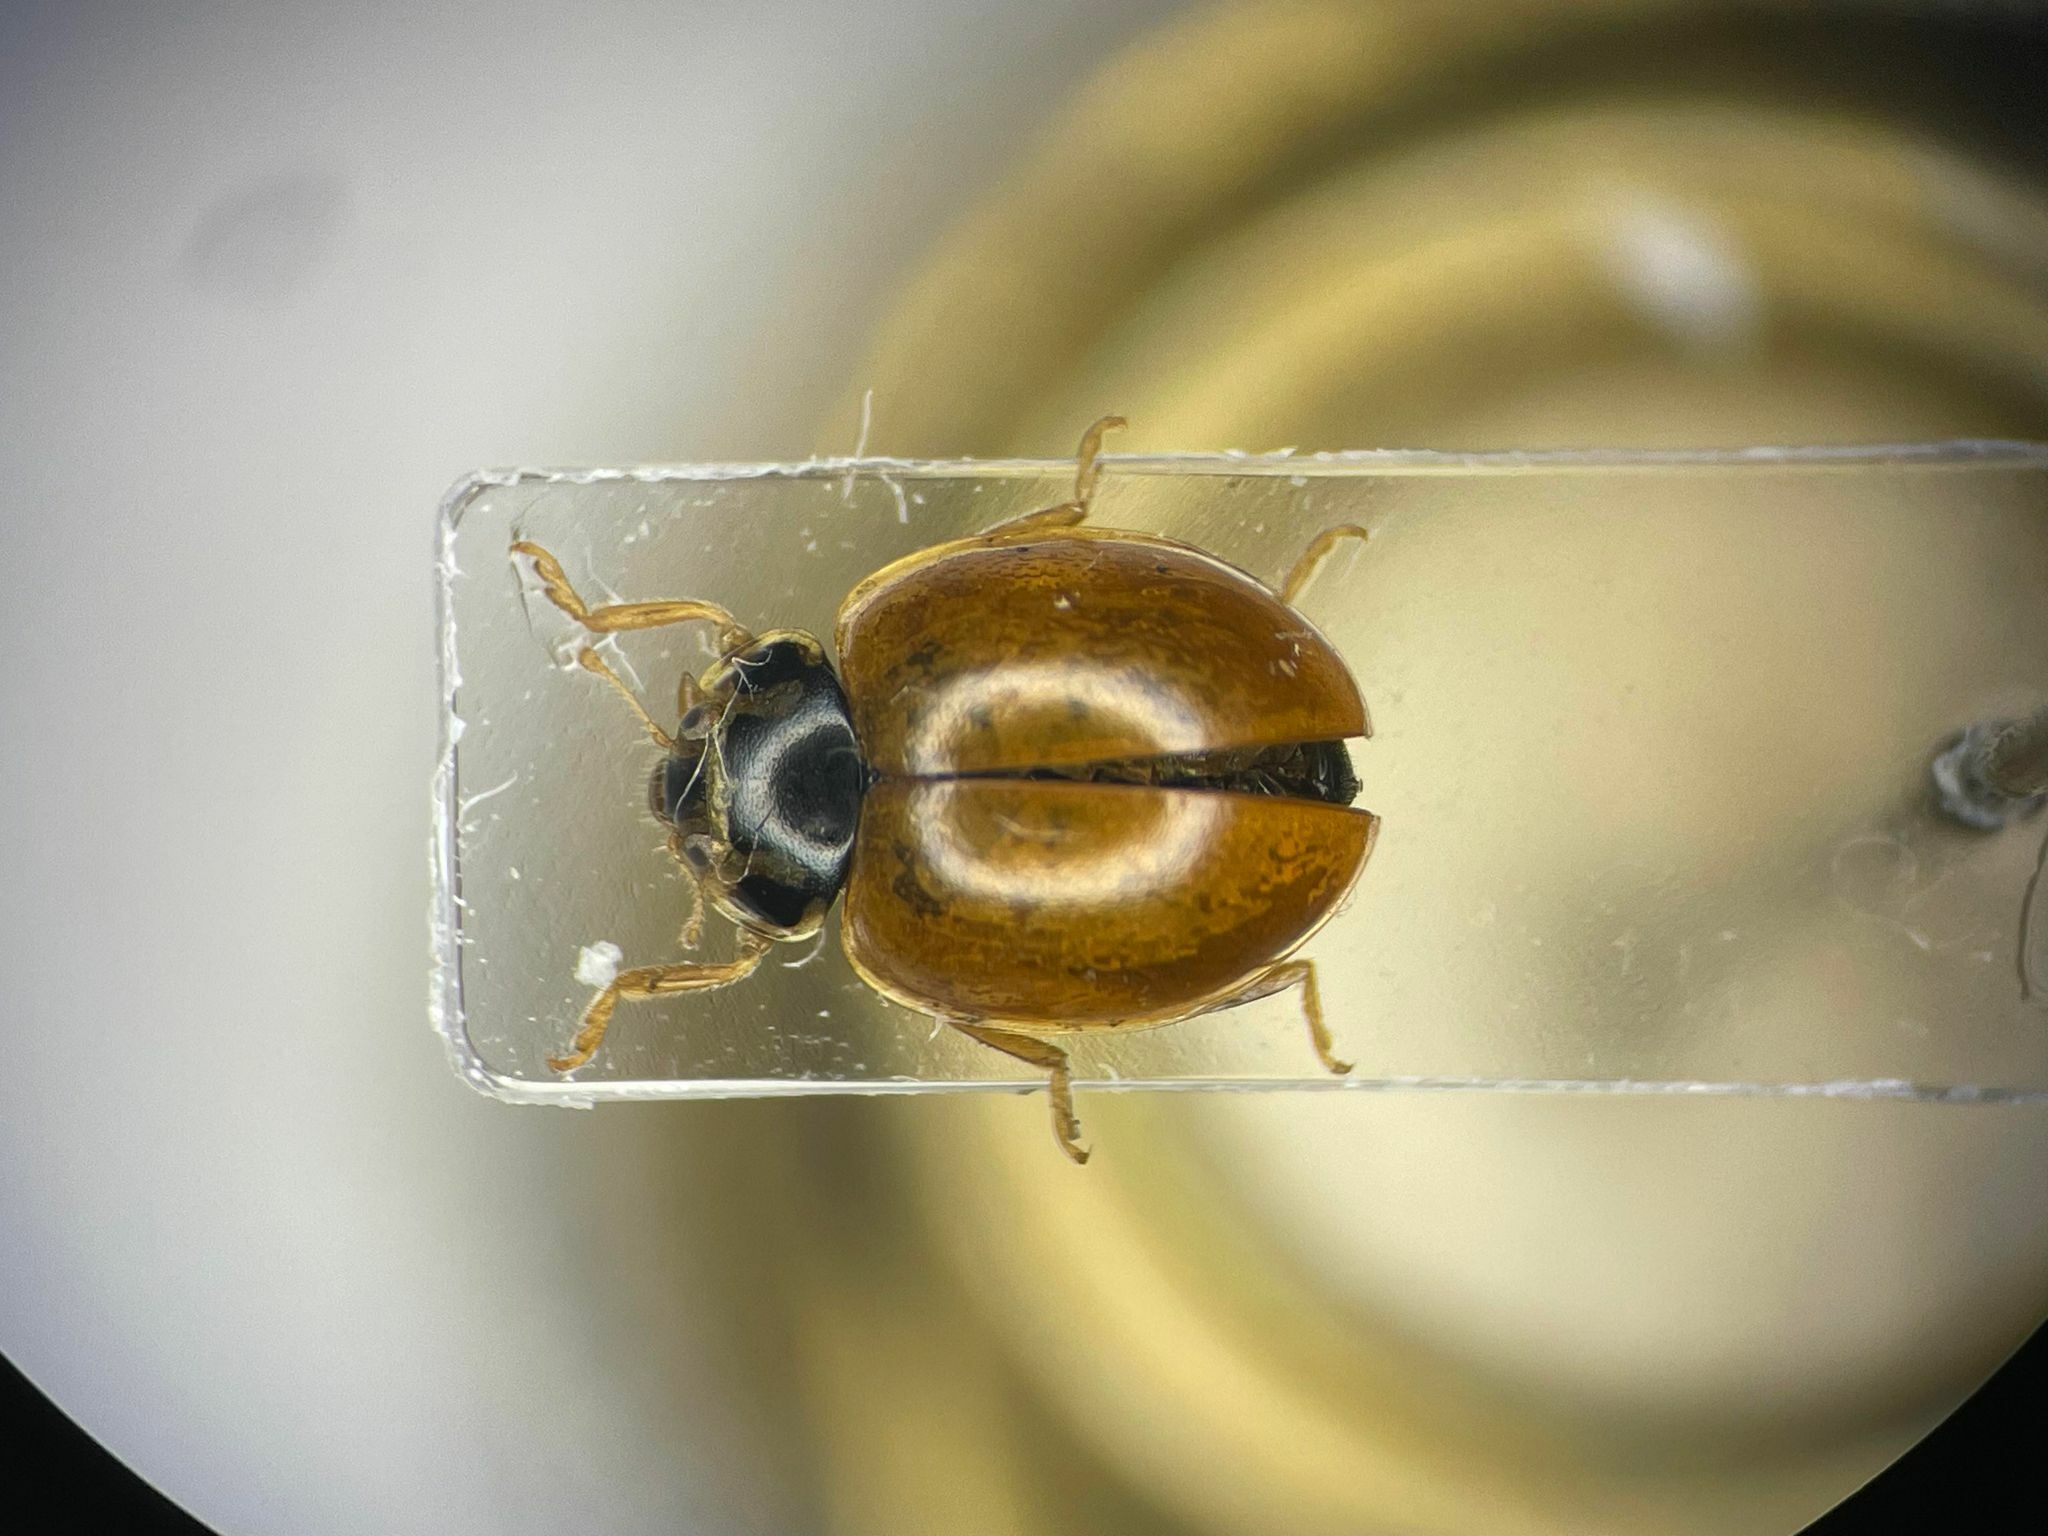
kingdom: Animalia
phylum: Arthropoda
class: Insecta
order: Coleoptera
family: Coccinellidae
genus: Cycloneda
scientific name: Cycloneda munda
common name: Polished lady beetle
